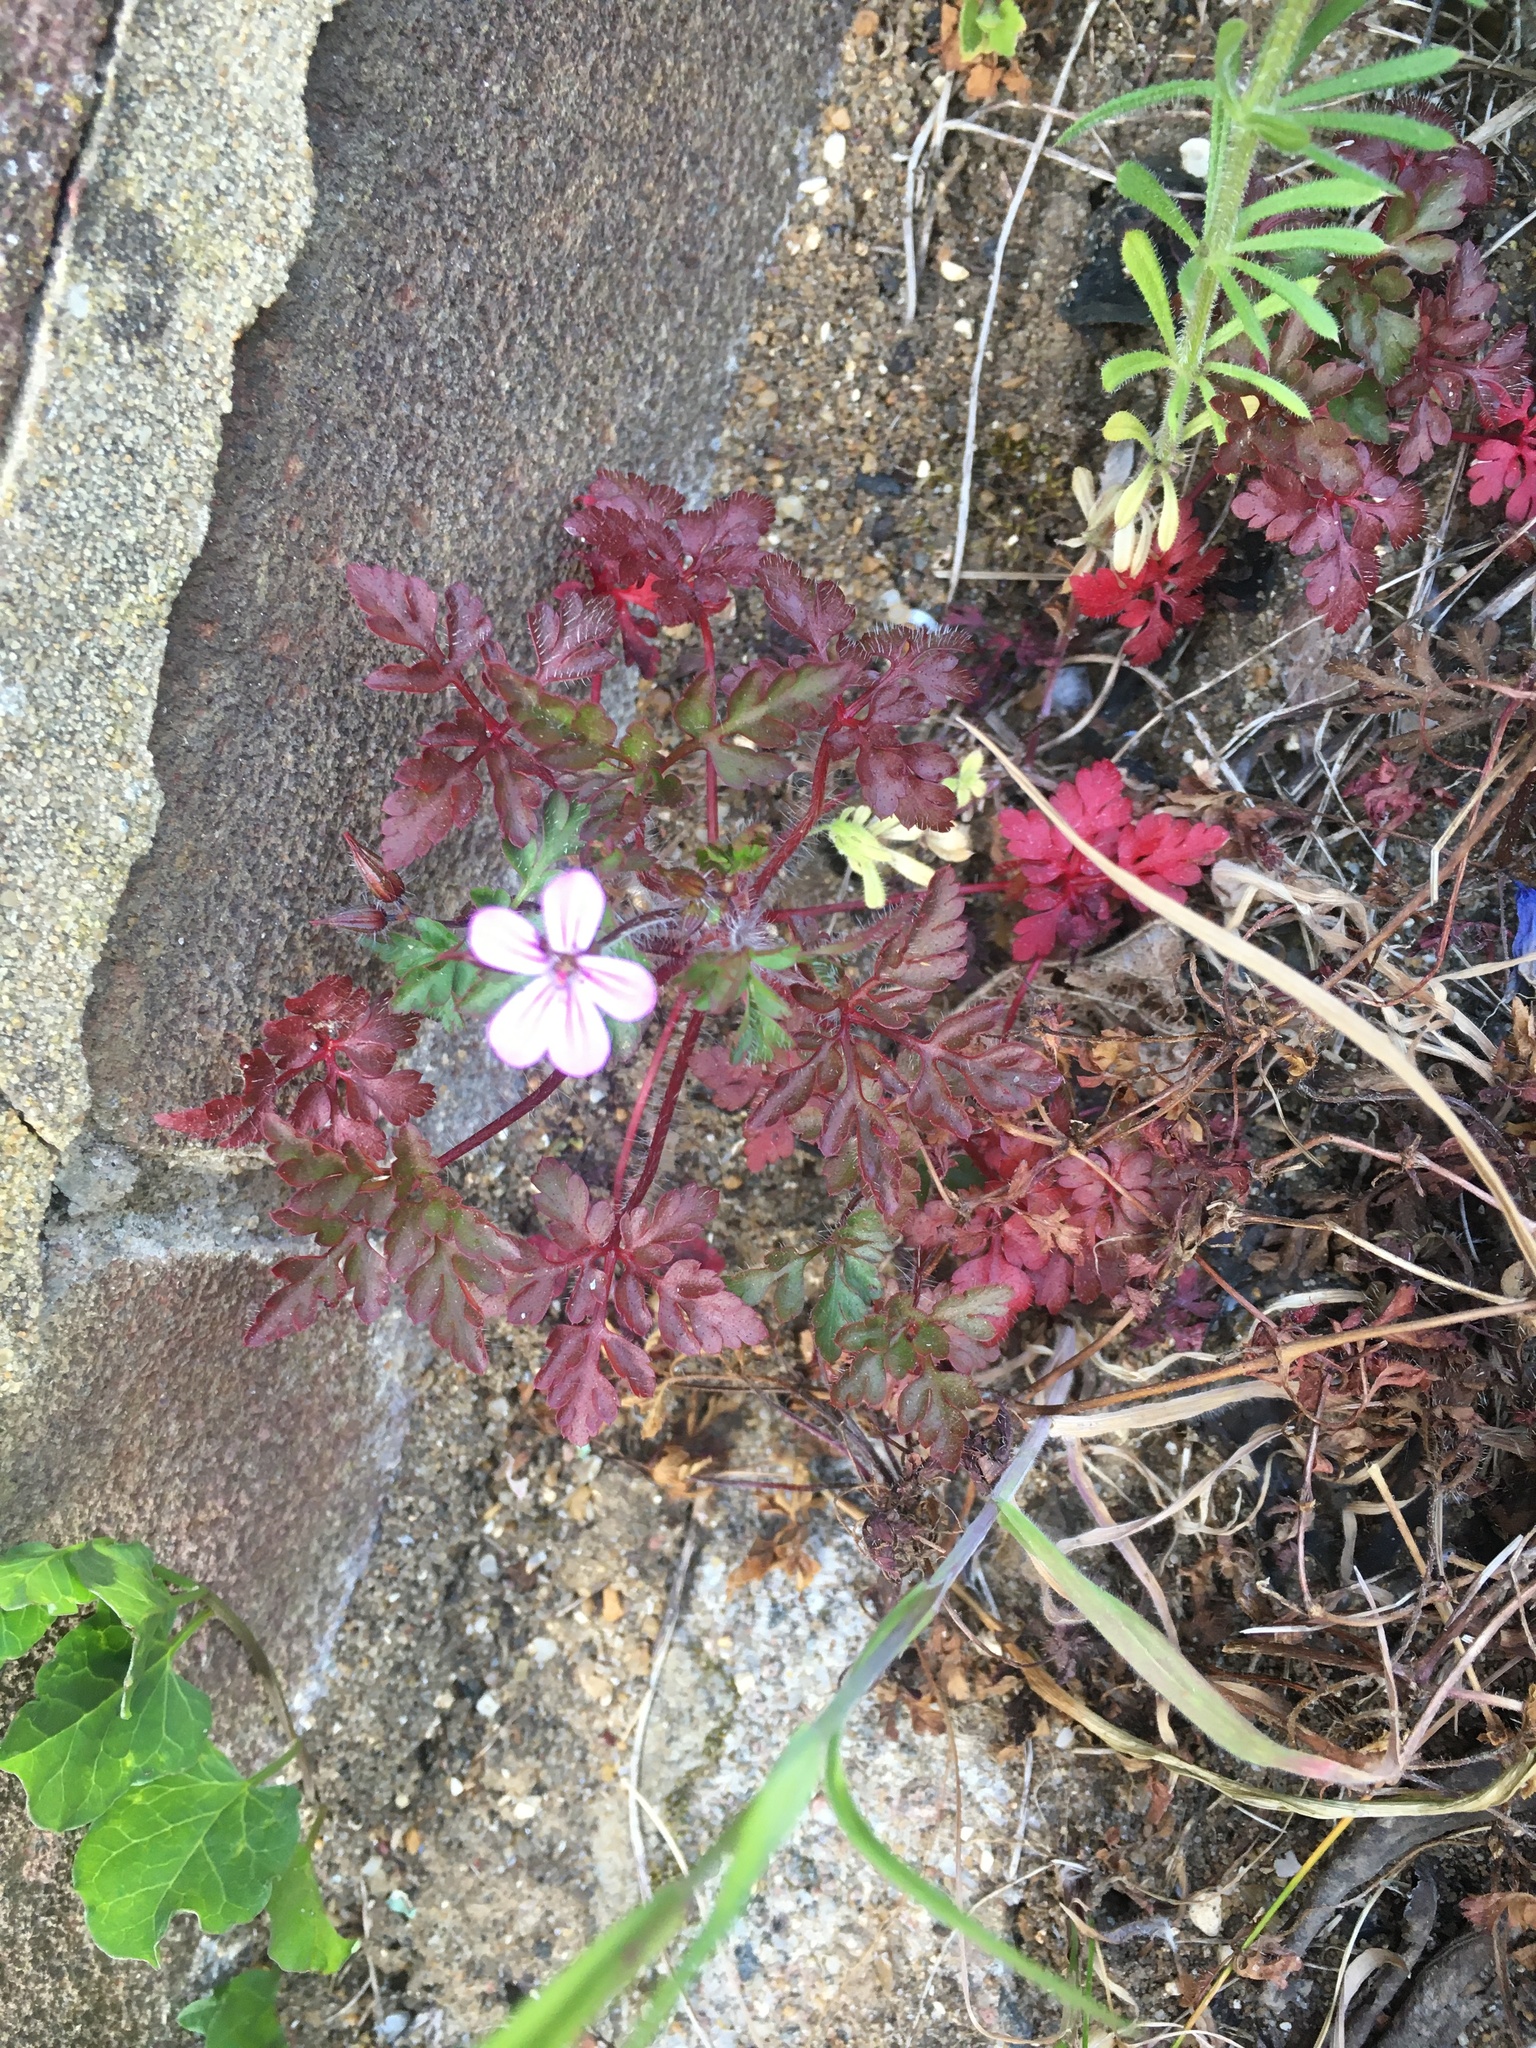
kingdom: Plantae
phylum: Tracheophyta
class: Magnoliopsida
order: Geraniales
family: Geraniaceae
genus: Geranium
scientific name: Geranium robertianum
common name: Herb-robert
